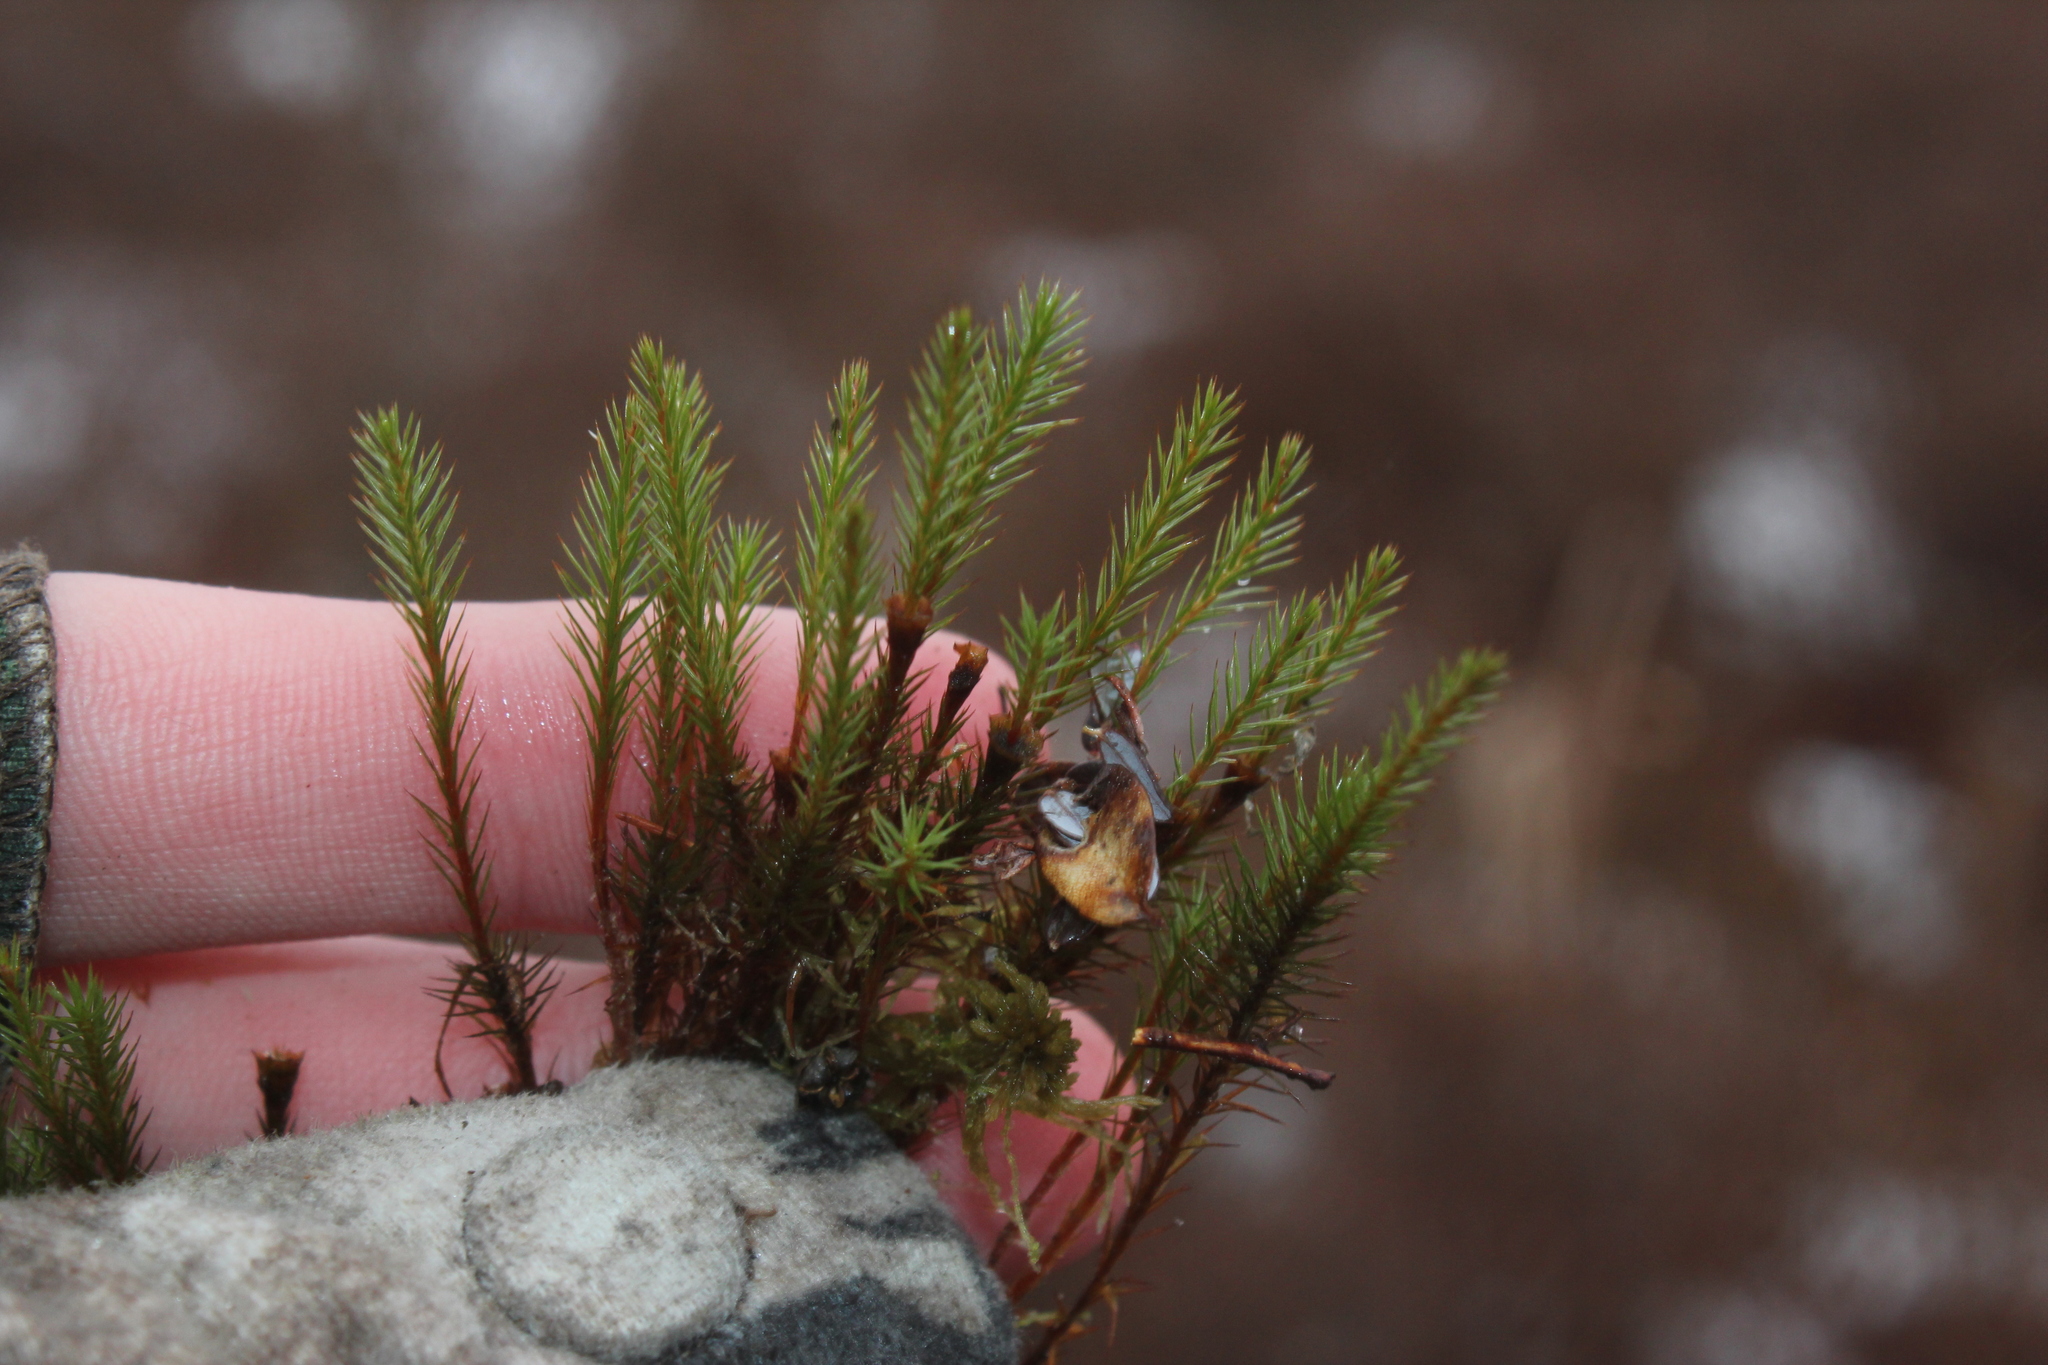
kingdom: Plantae
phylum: Bryophyta
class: Polytrichopsida
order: Polytrichales
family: Polytrichaceae
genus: Polytrichum
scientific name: Polytrichum strictum
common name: Bog haircap moss
